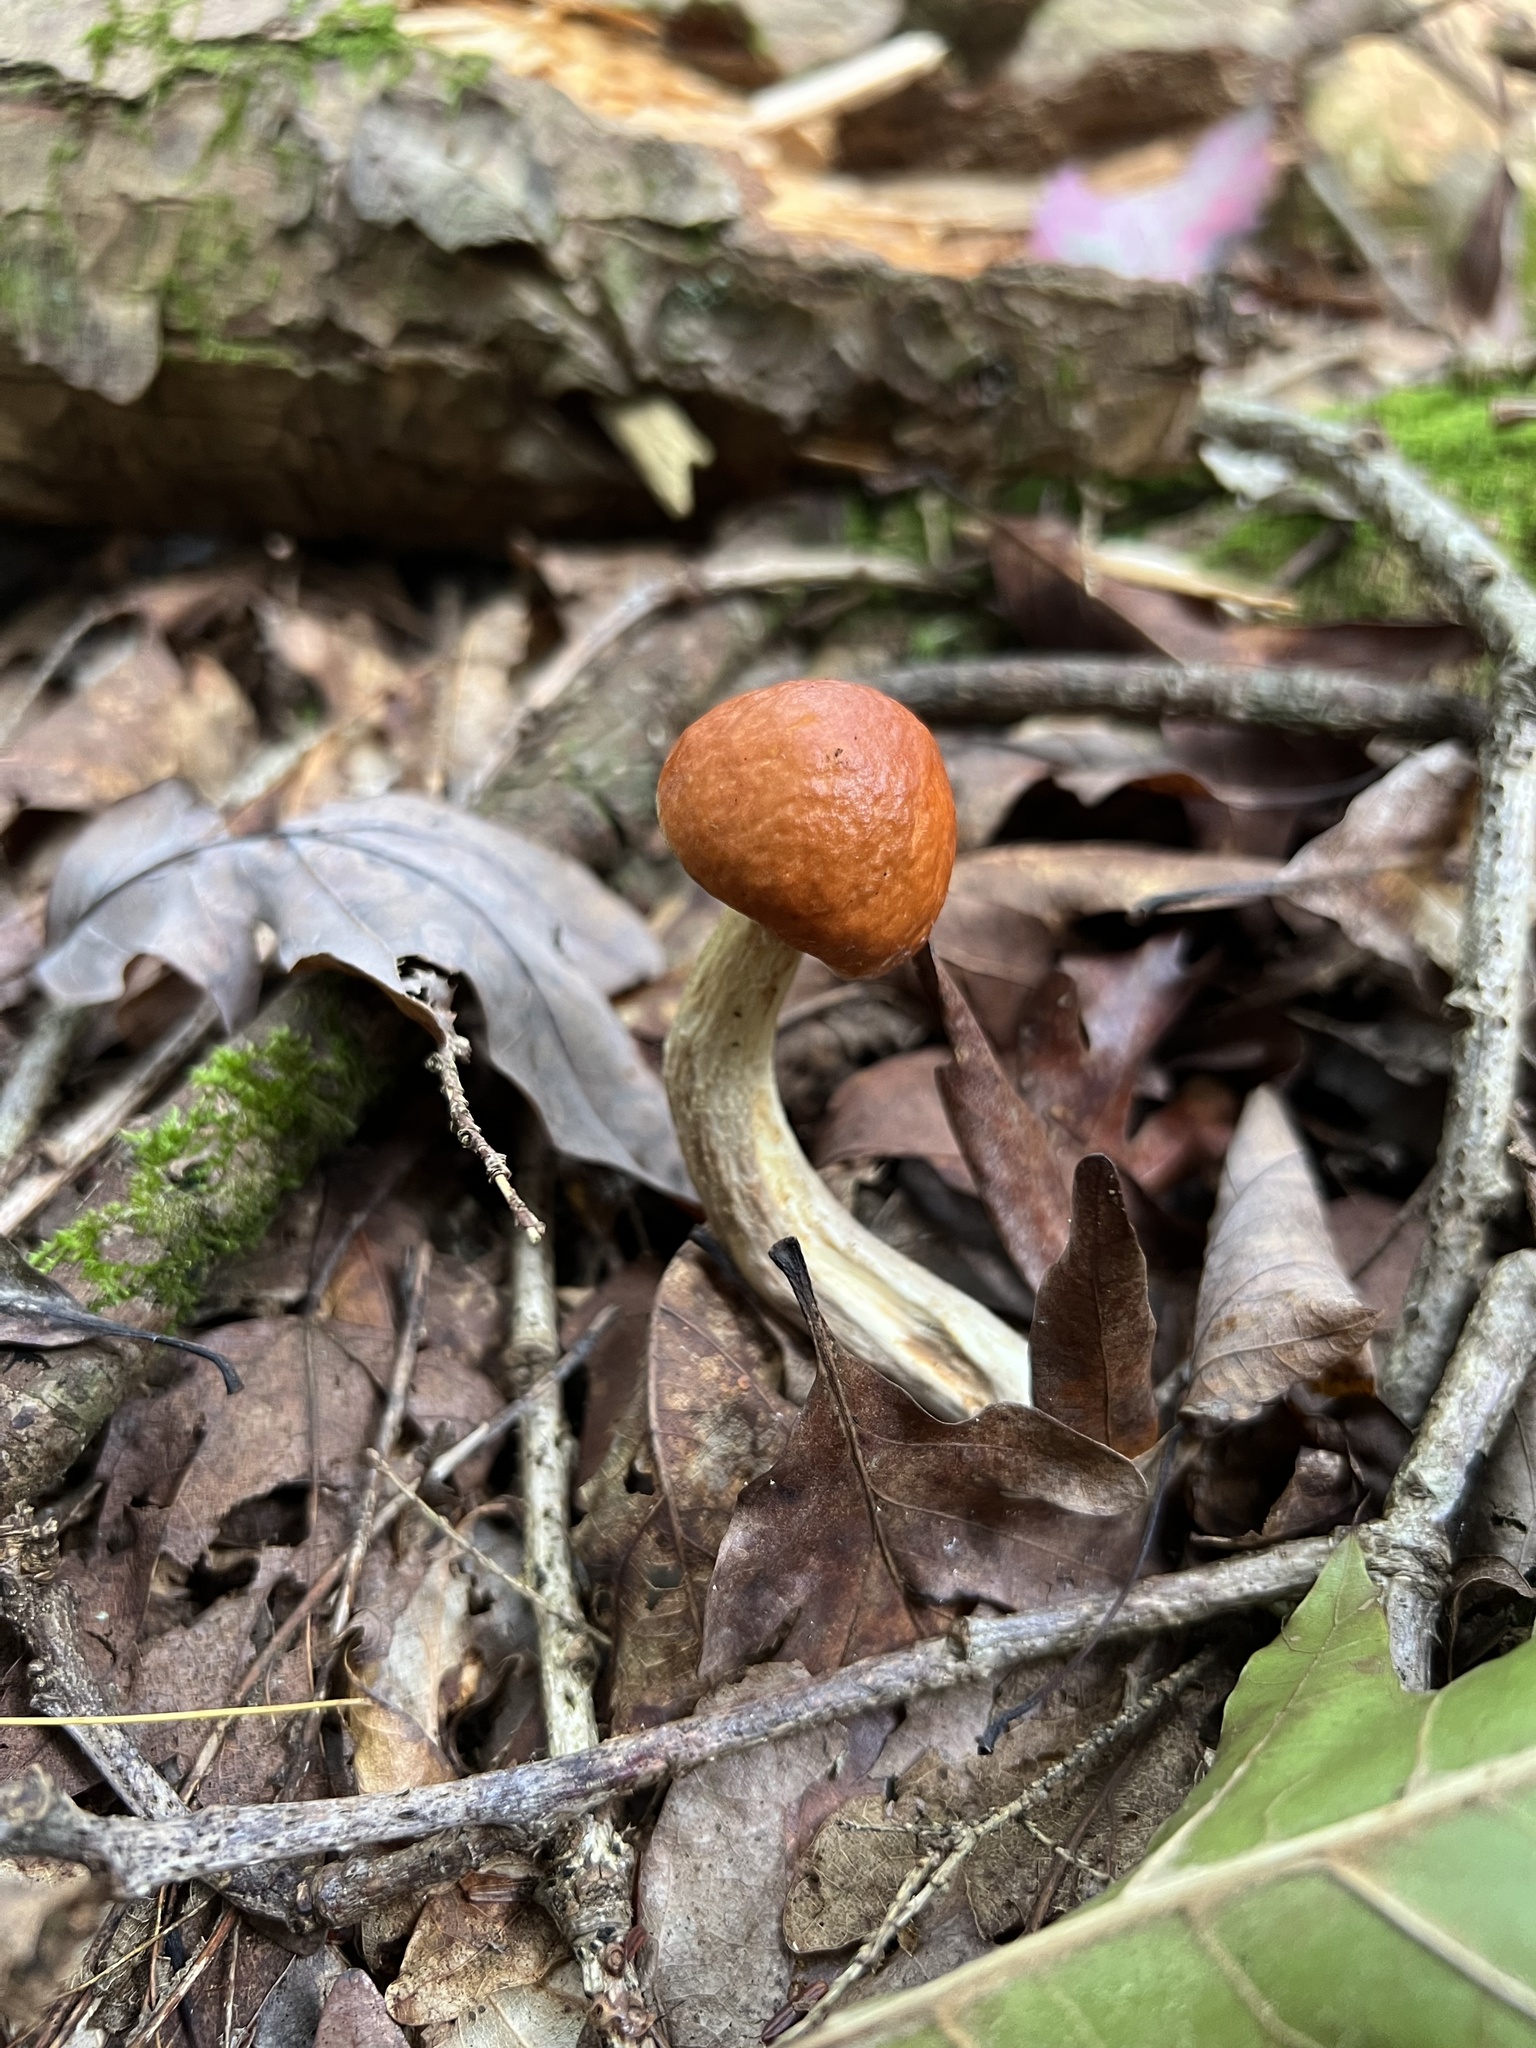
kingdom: Fungi
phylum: Basidiomycota
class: Agaricomycetes
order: Boletales
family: Boletaceae
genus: Leccinum
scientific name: Leccinum longicurvipes
